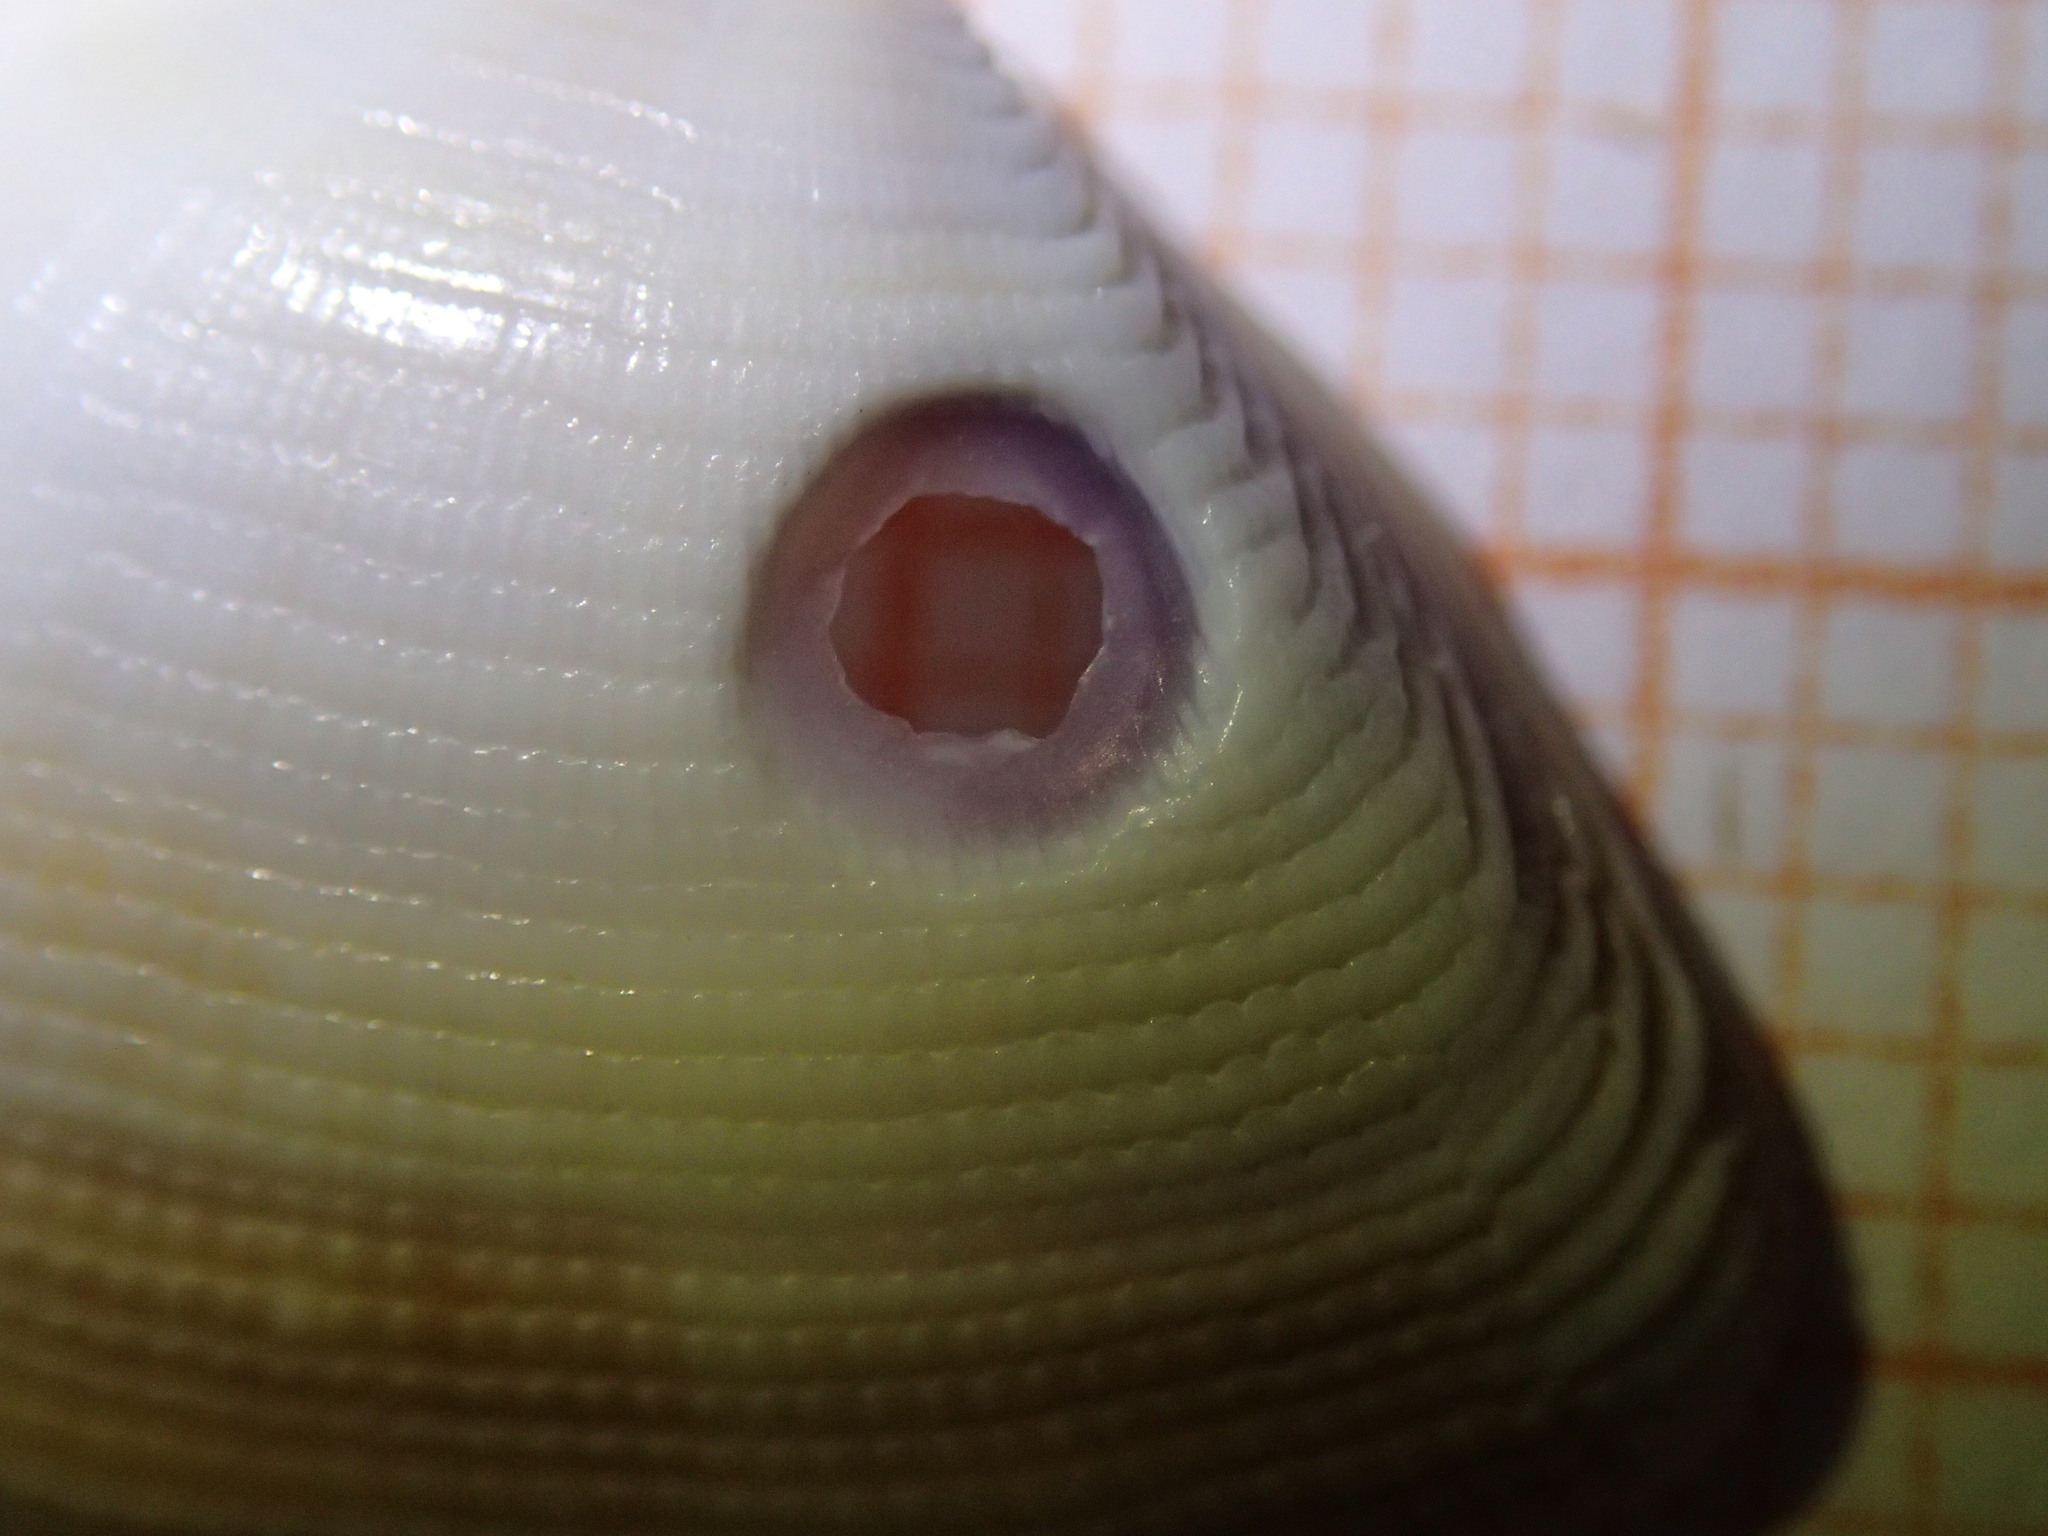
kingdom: Animalia
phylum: Mollusca
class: Bivalvia
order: Cardiida
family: Donacidae
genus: Donax
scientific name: Donax semistriatus
